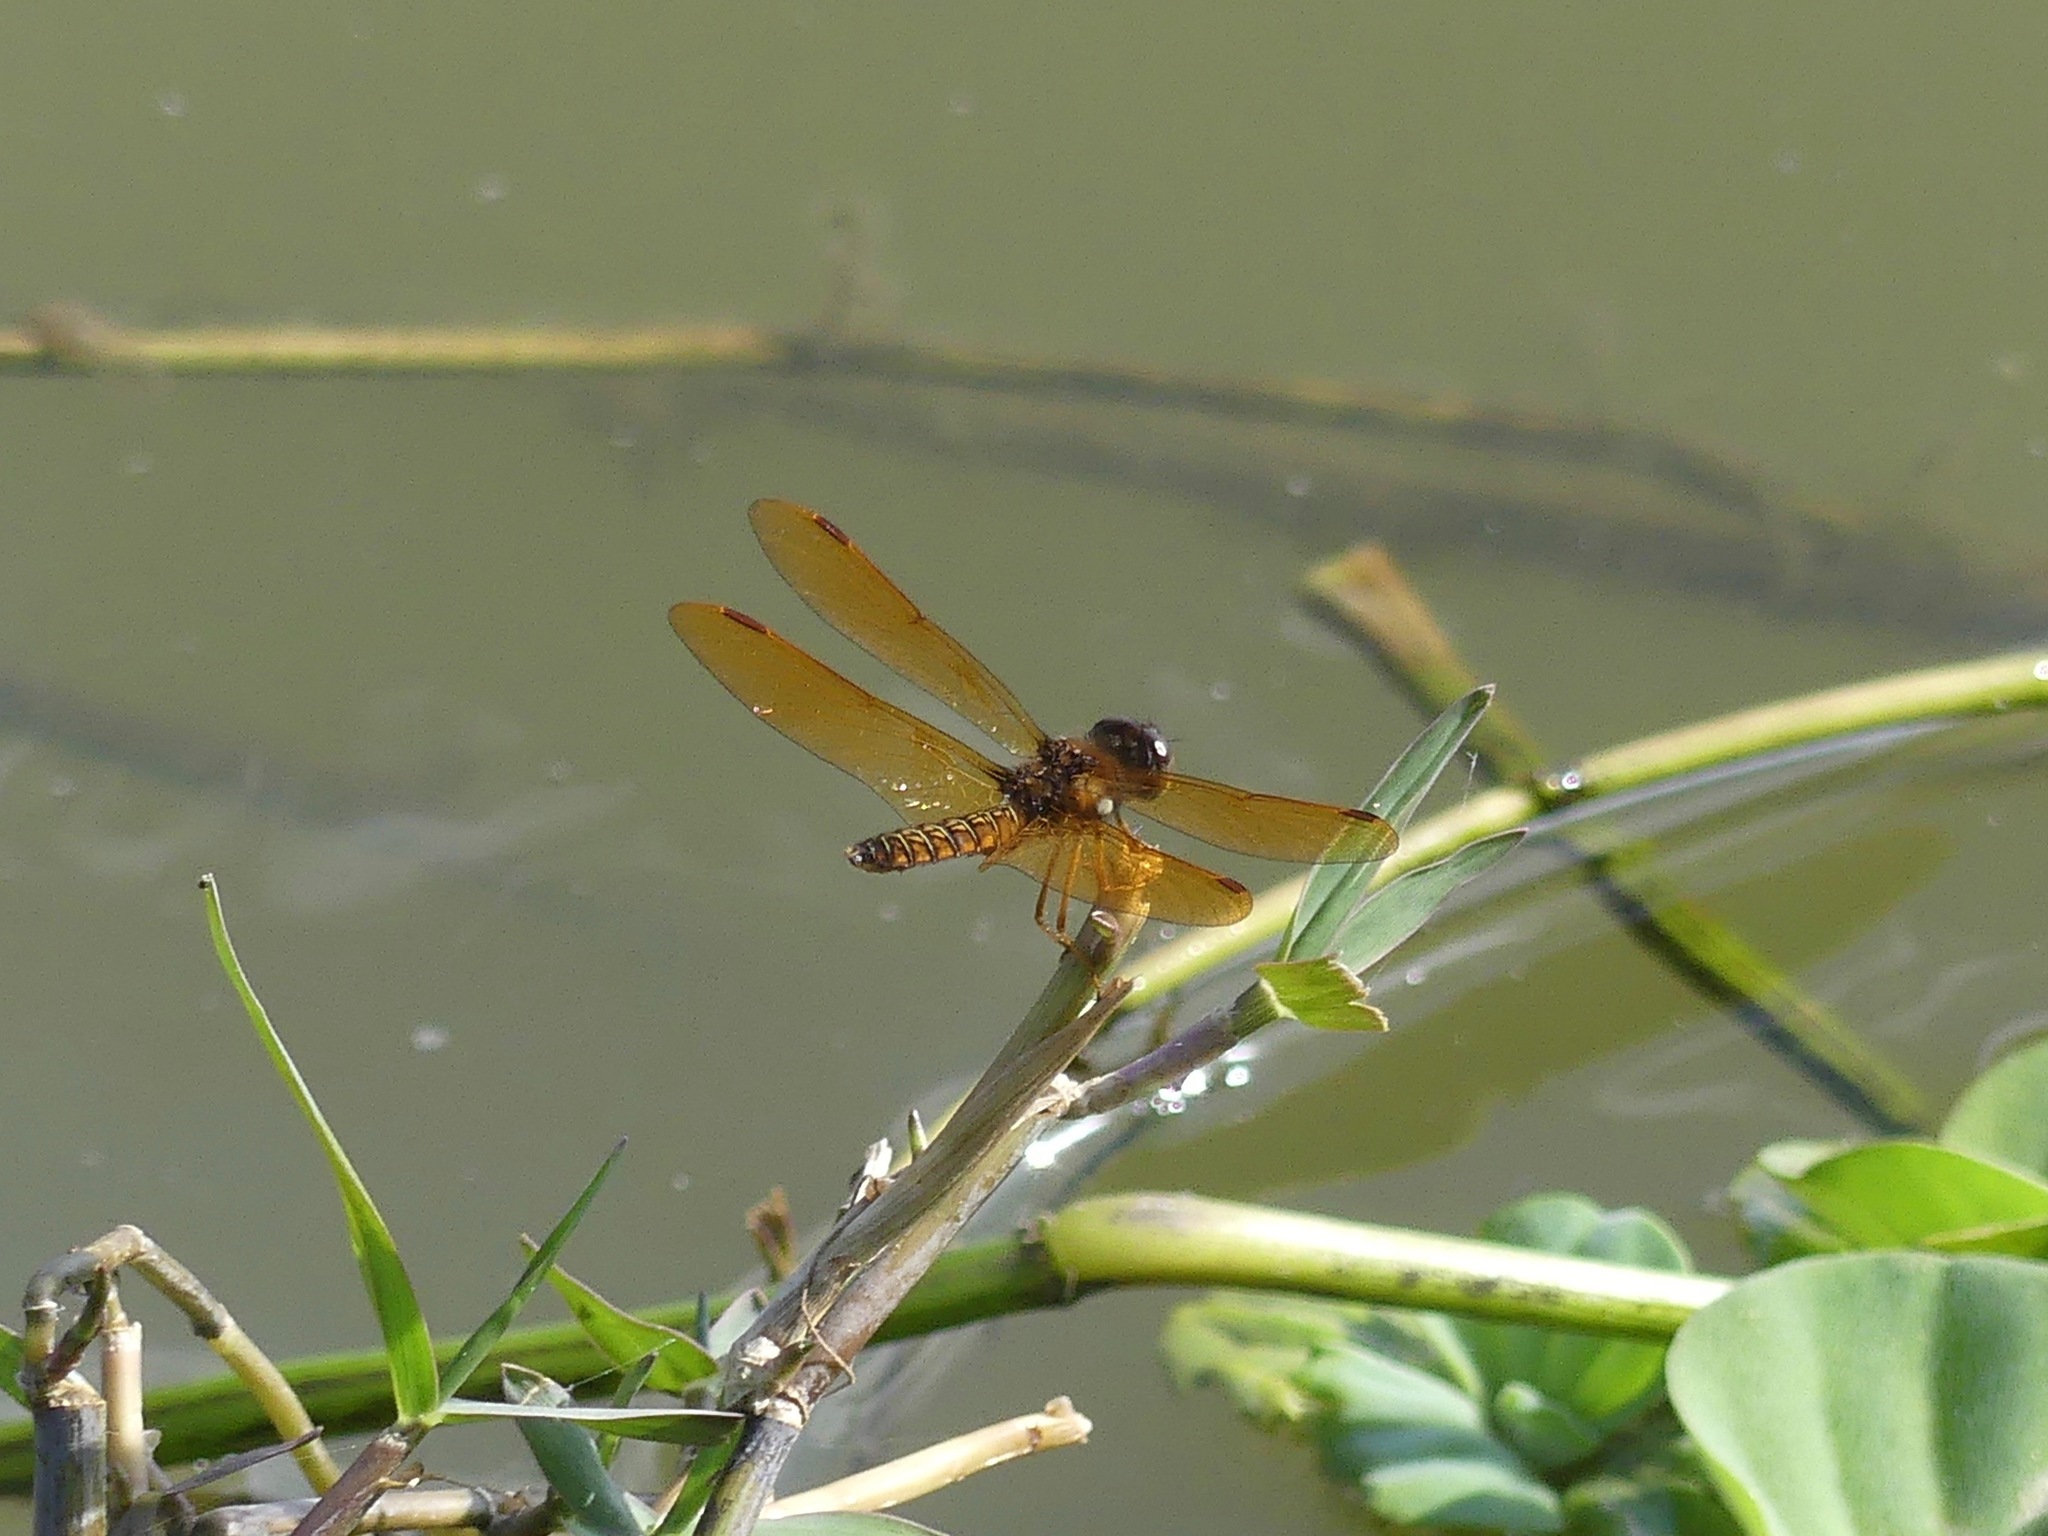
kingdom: Animalia
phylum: Arthropoda
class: Insecta
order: Odonata
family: Libellulidae
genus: Perithemis
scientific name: Perithemis tenera
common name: Eastern amberwing
